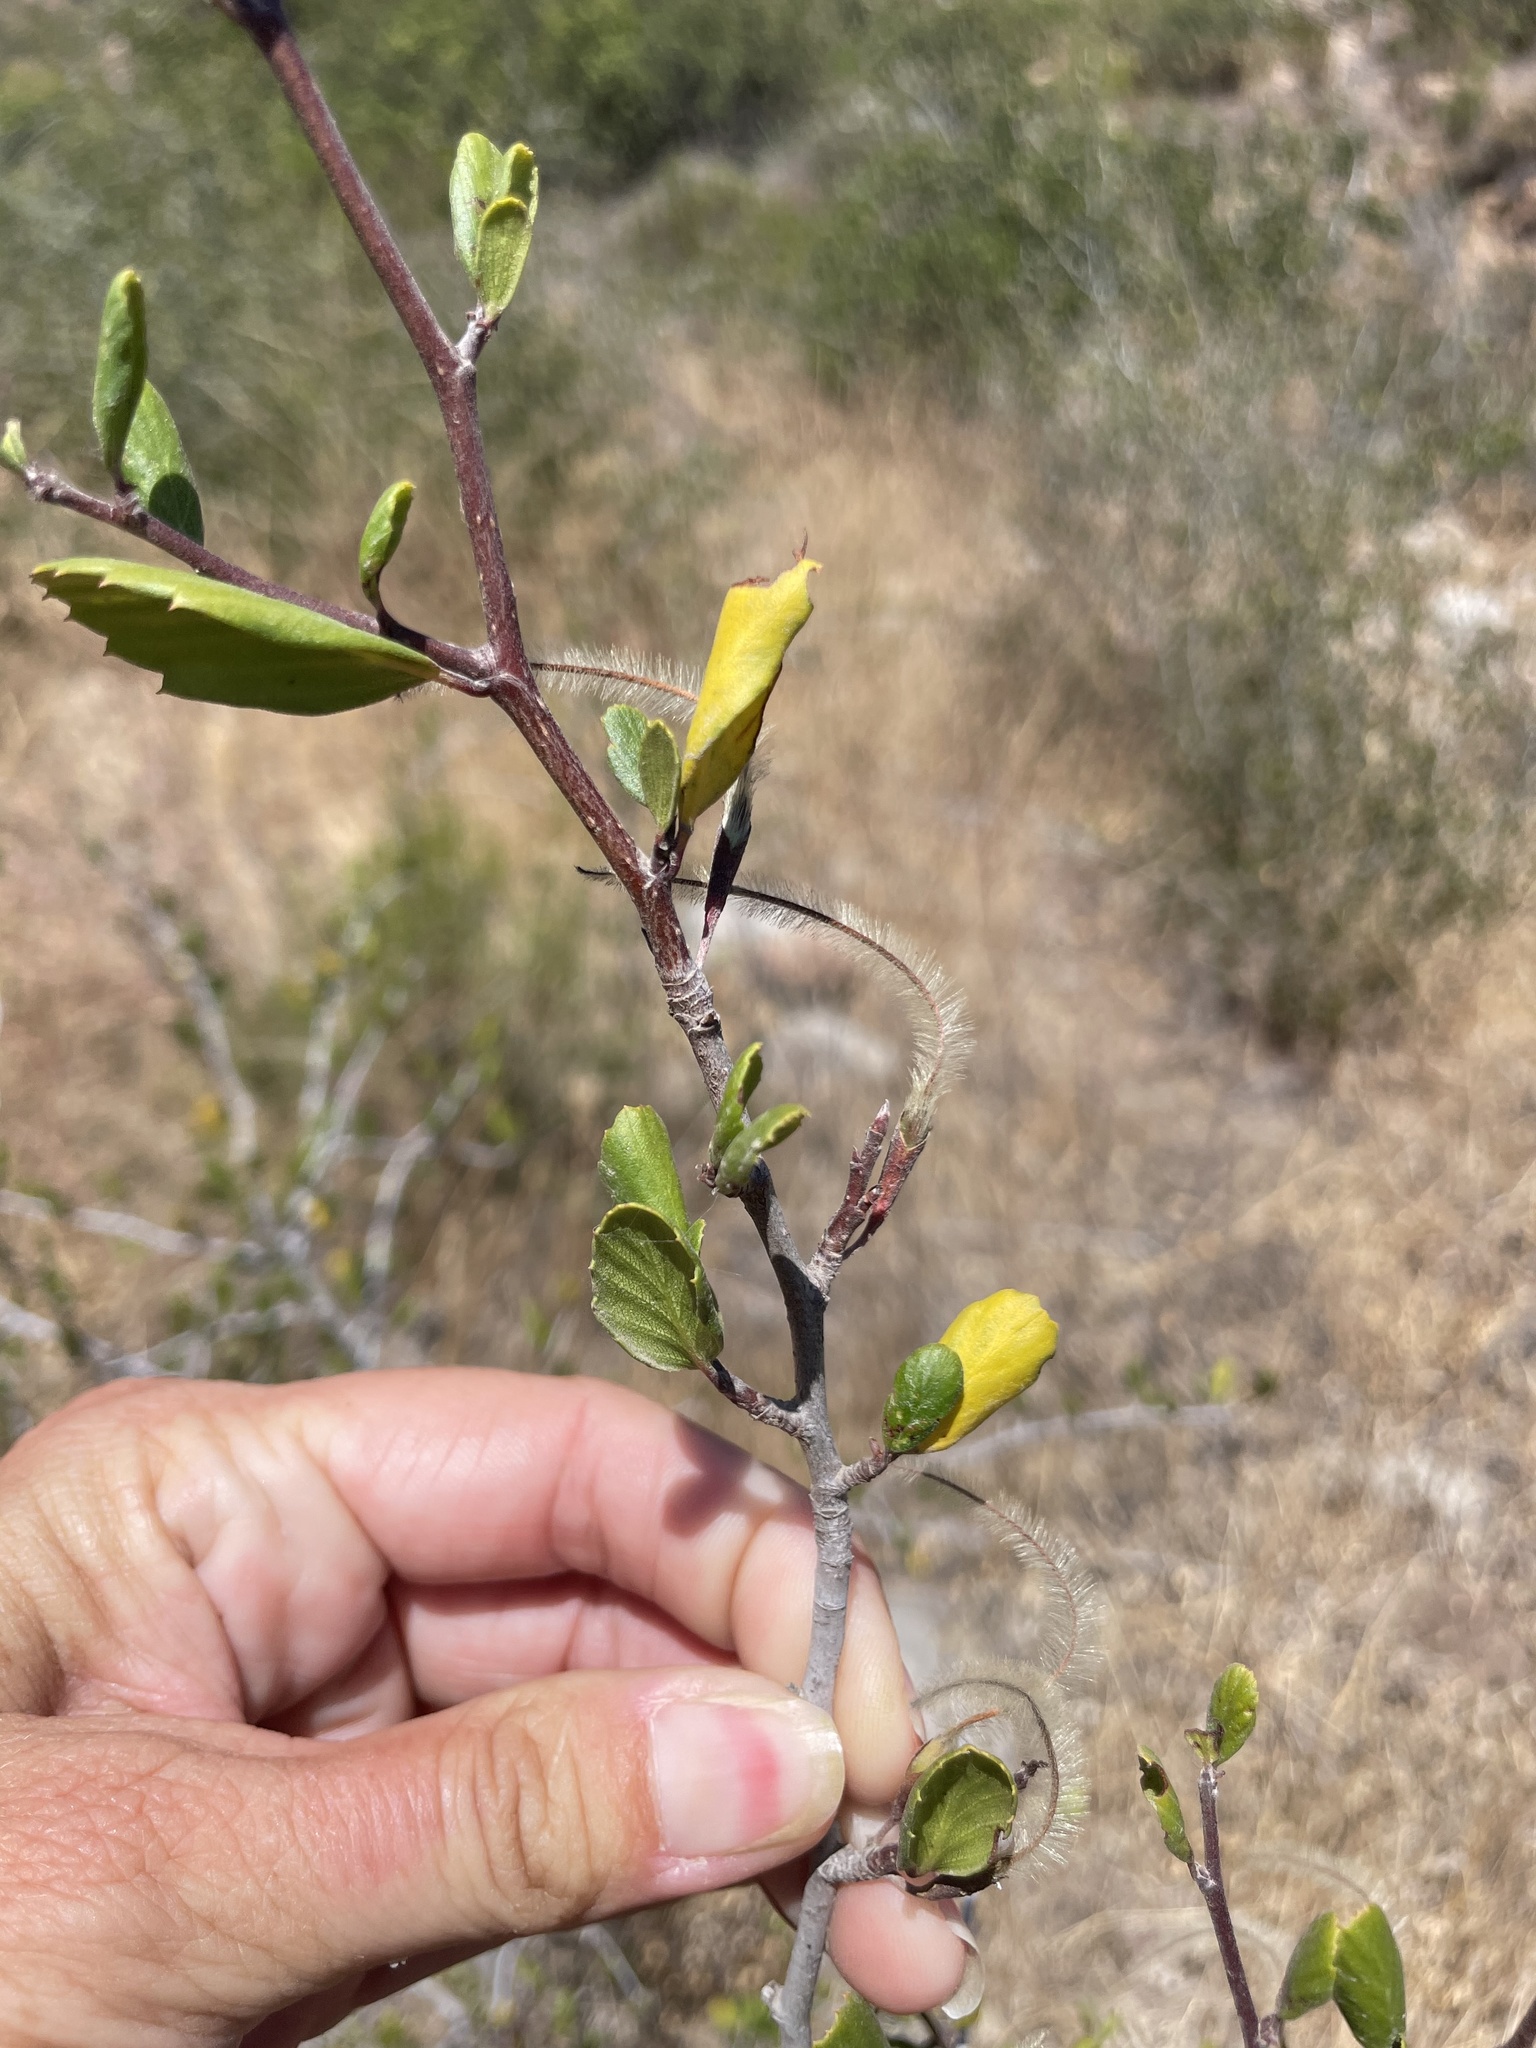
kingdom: Plantae
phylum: Tracheophyta
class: Magnoliopsida
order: Rosales
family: Rosaceae
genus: Cercocarpus
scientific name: Cercocarpus montanus
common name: Alder-leaf cercocarpus
